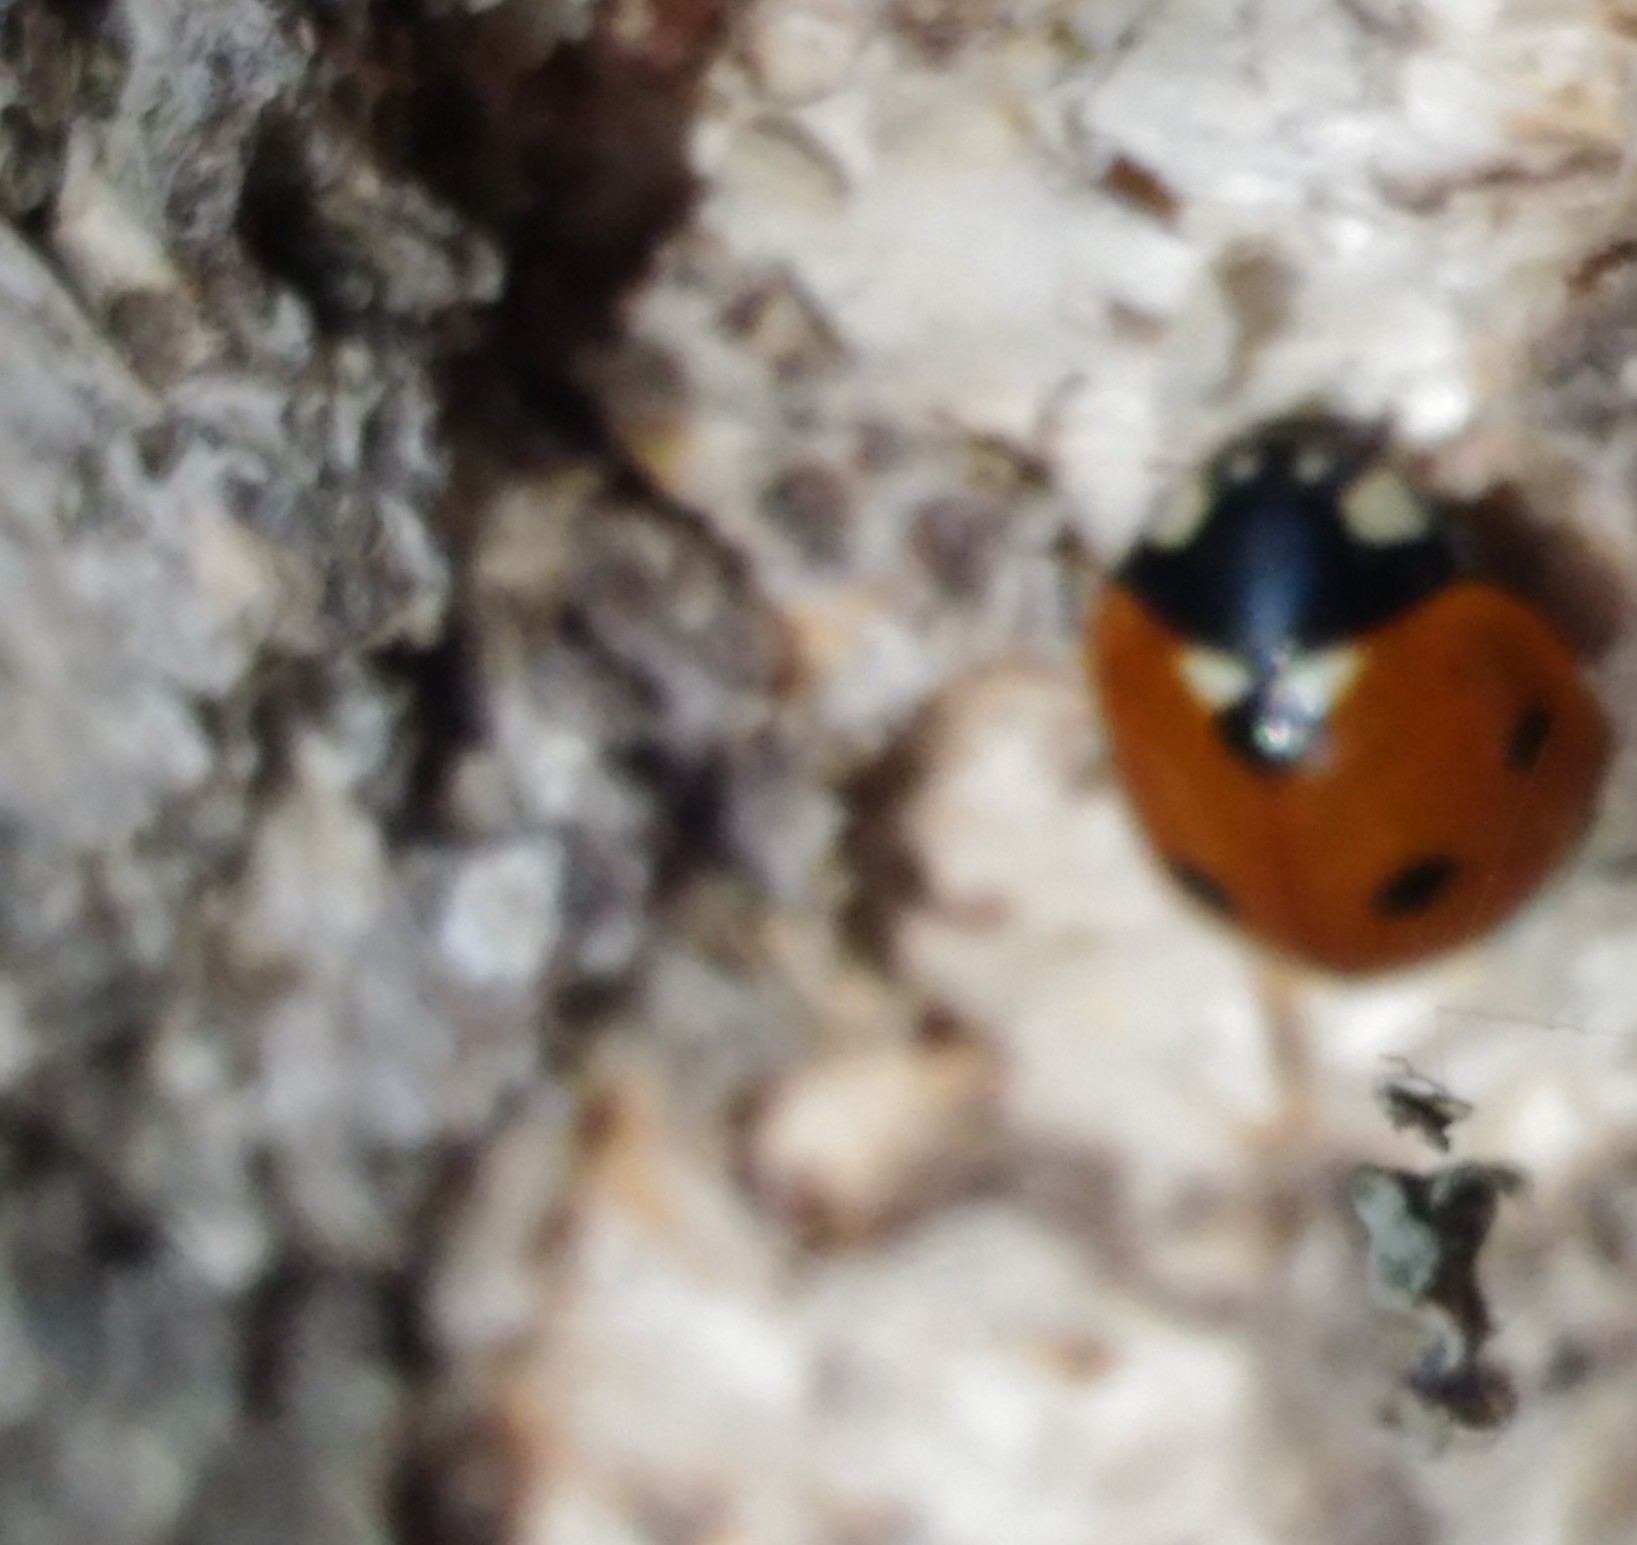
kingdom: Animalia
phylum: Arthropoda
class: Insecta
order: Coleoptera
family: Coccinellidae
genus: Coccinella
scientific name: Coccinella septempunctata
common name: Sevenspotted lady beetle
